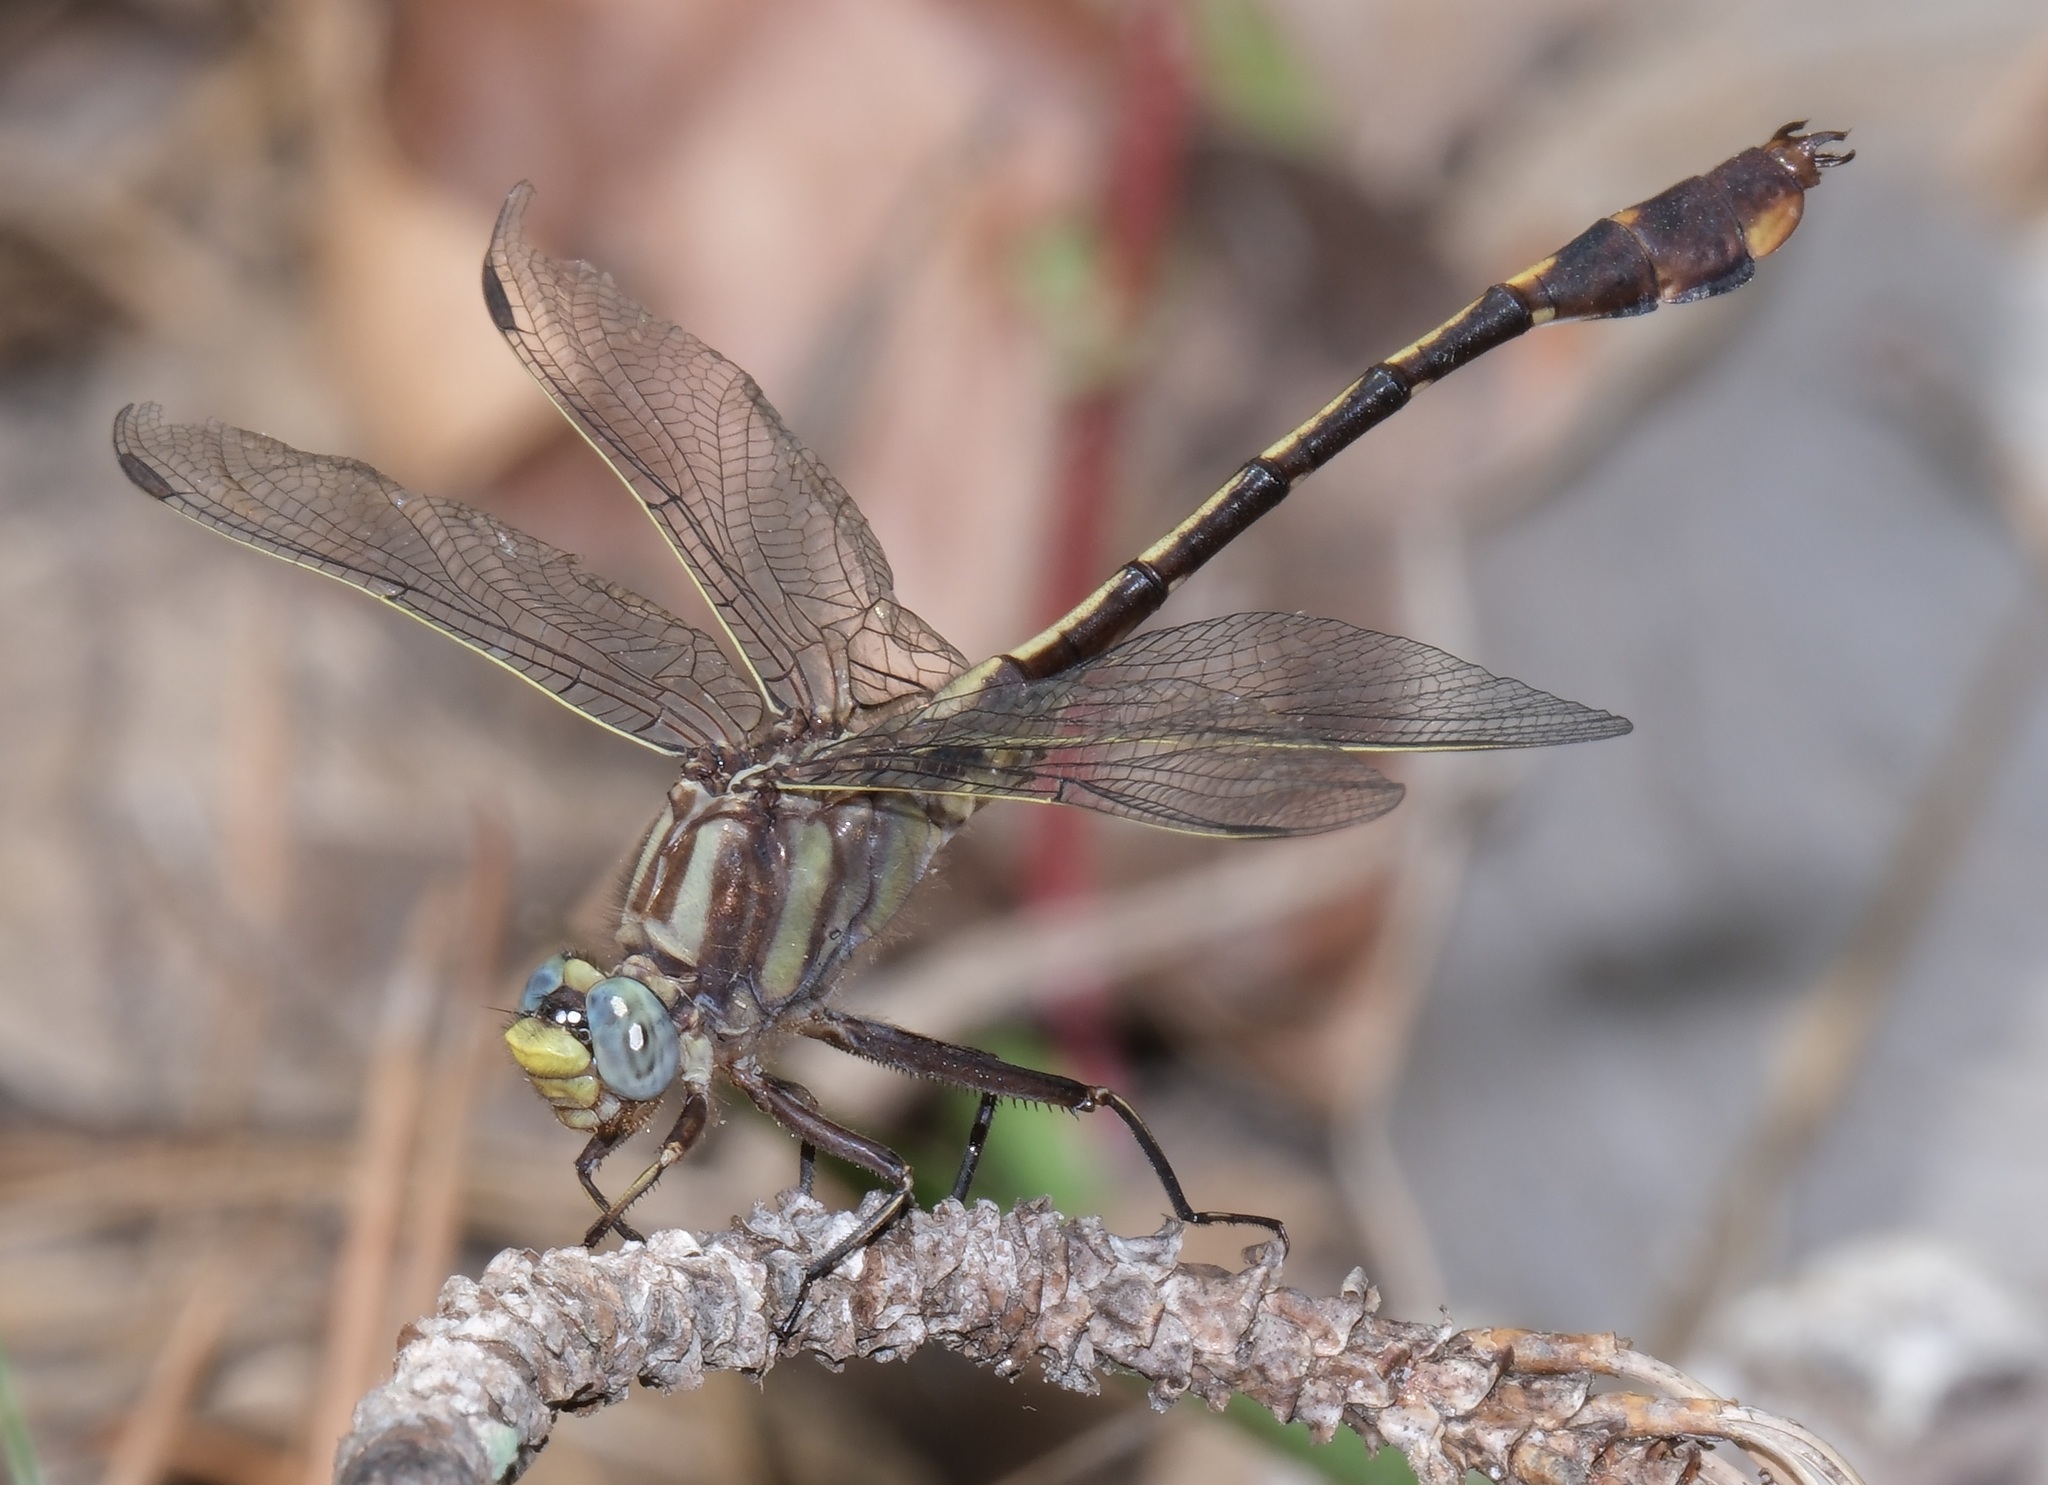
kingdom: Animalia
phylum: Arthropoda
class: Insecta
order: Odonata
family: Gomphidae
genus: Gomphurus
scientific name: Gomphurus hybridus
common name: Cocoa clubtail
